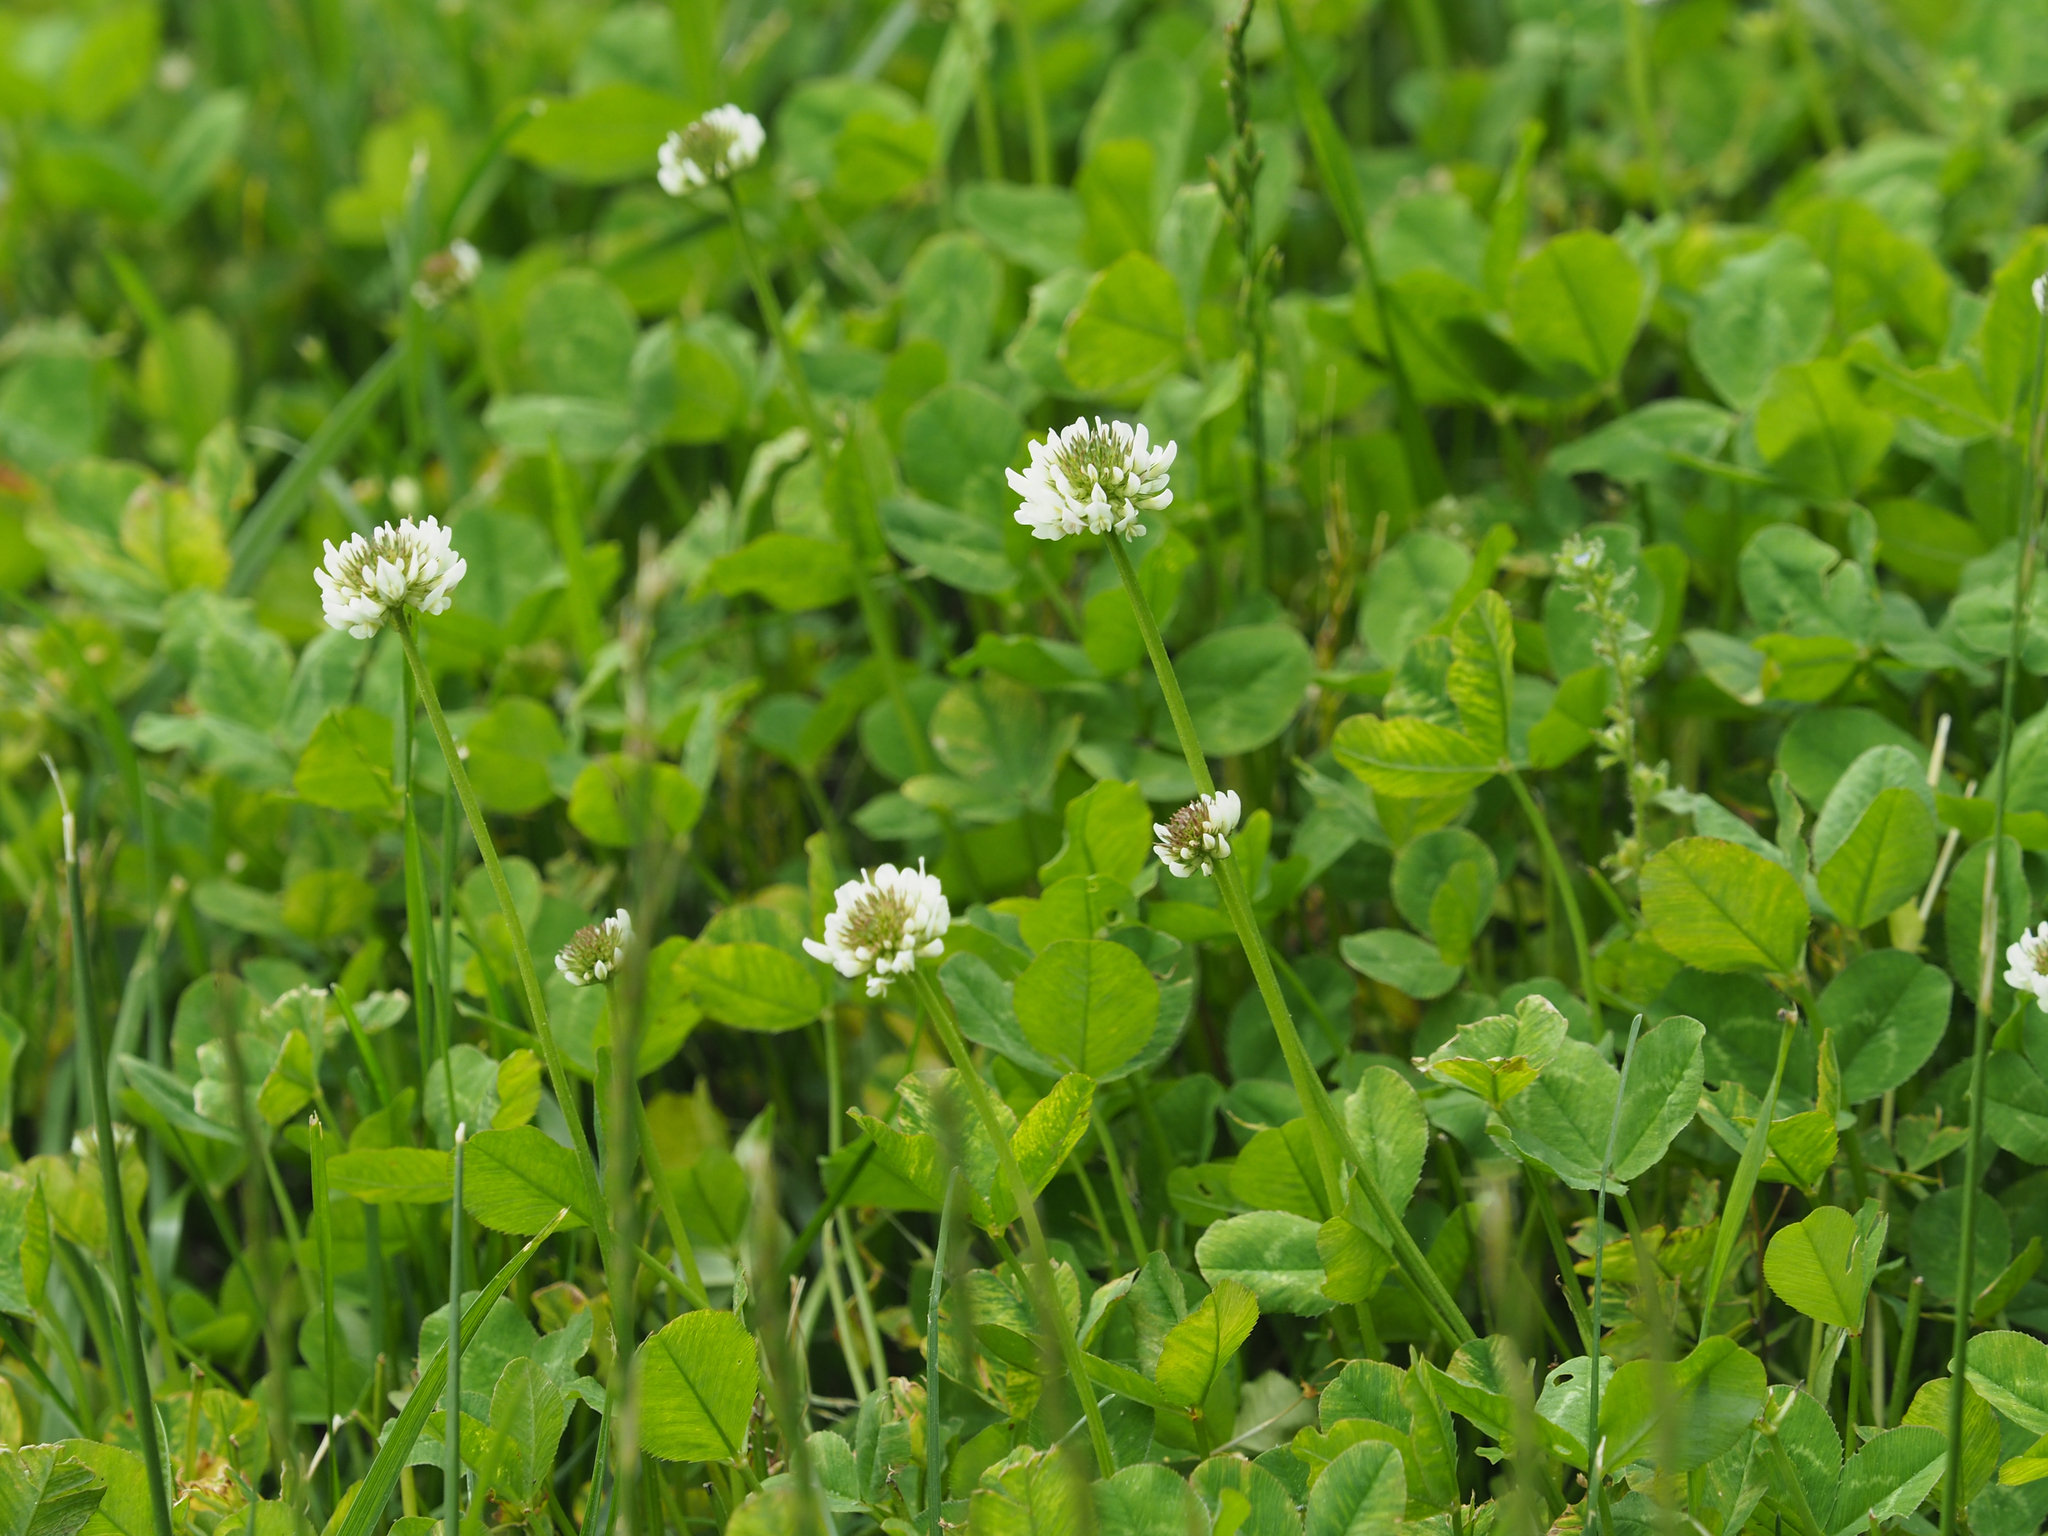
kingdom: Plantae
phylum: Tracheophyta
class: Magnoliopsida
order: Fabales
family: Fabaceae
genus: Trifolium
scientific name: Trifolium repens
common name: White clover
